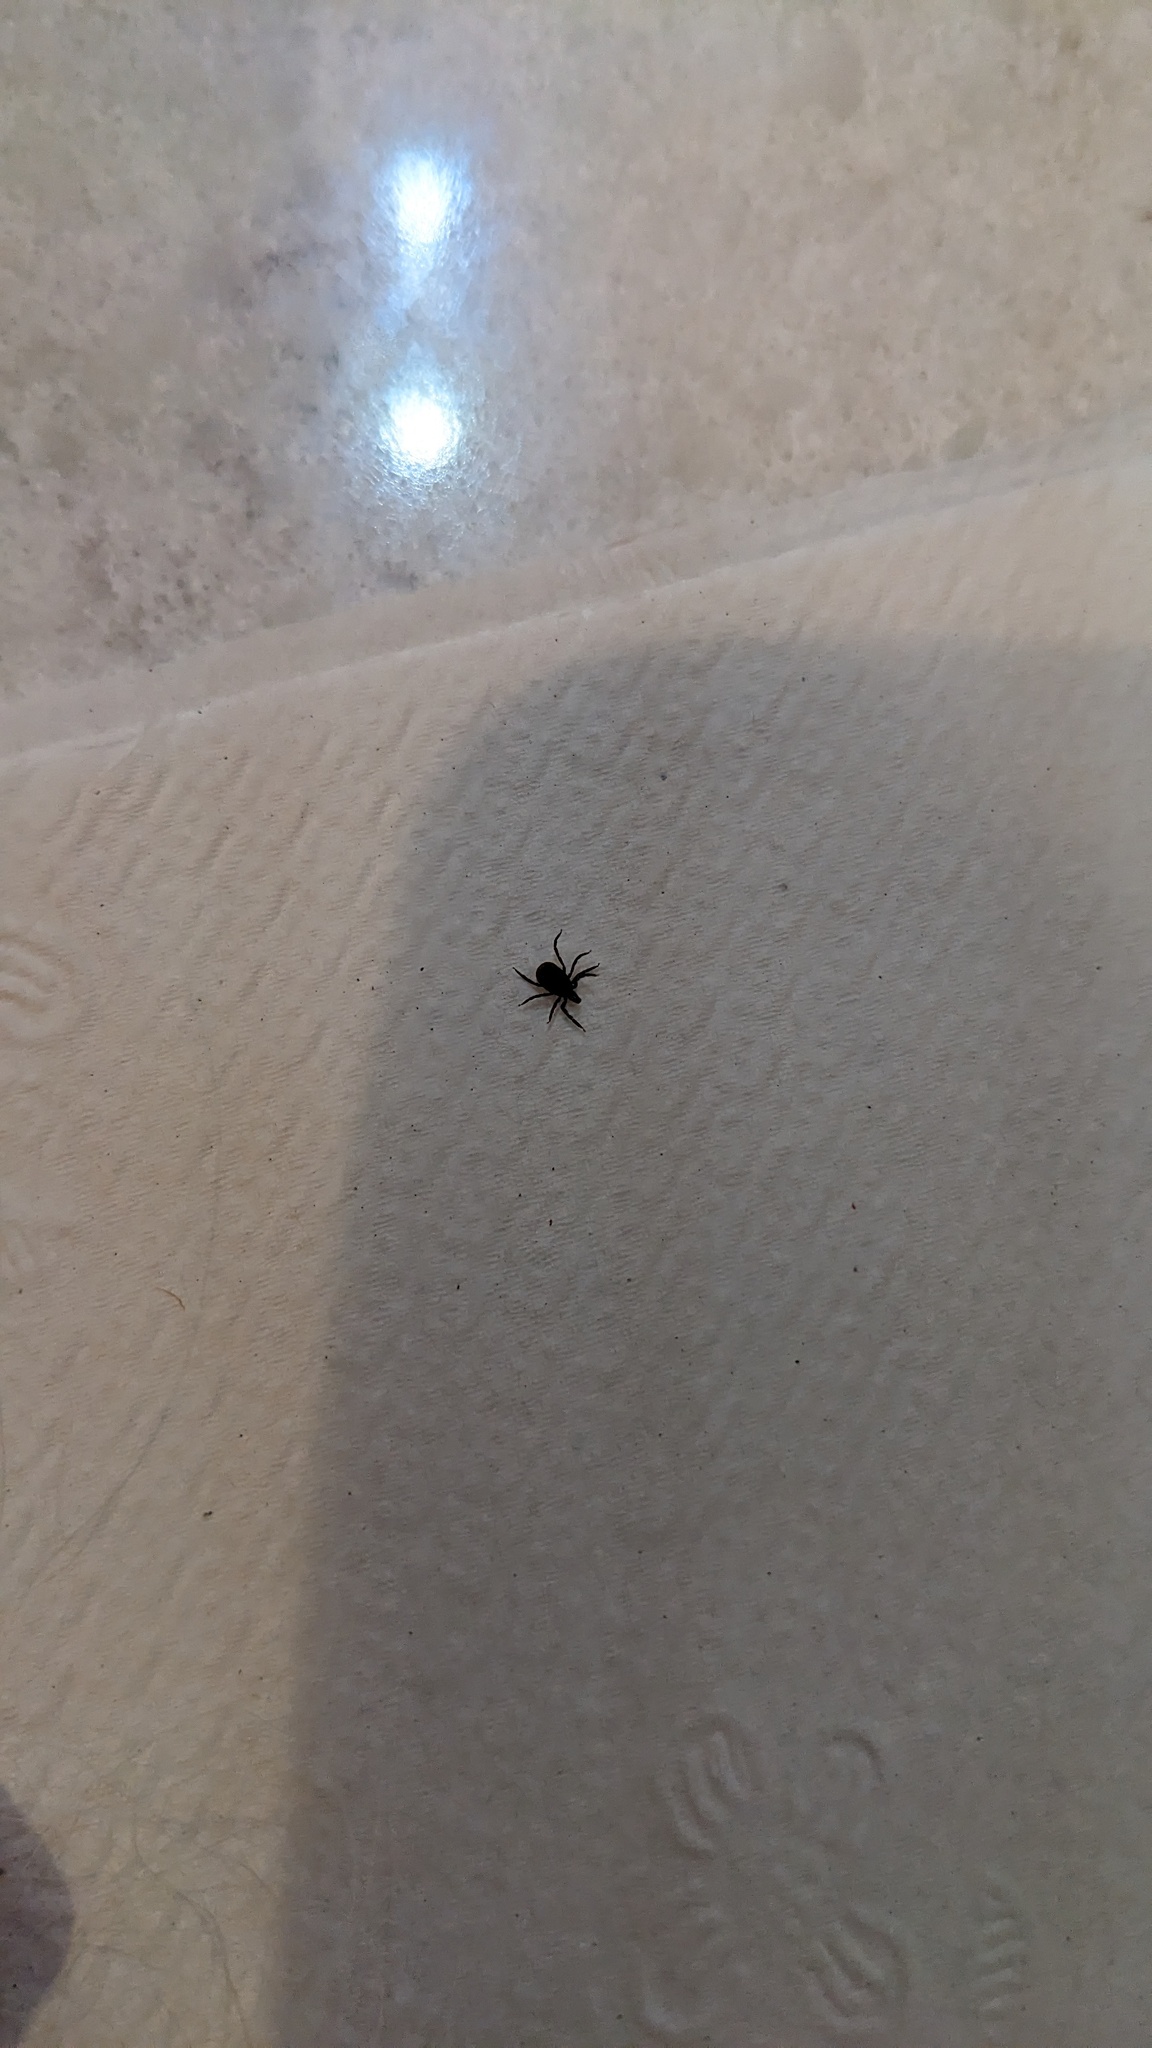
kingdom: Animalia
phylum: Arthropoda
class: Arachnida
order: Ixodida
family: Ixodidae
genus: Ixodes
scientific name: Ixodes scapularis
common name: Black legged tick
